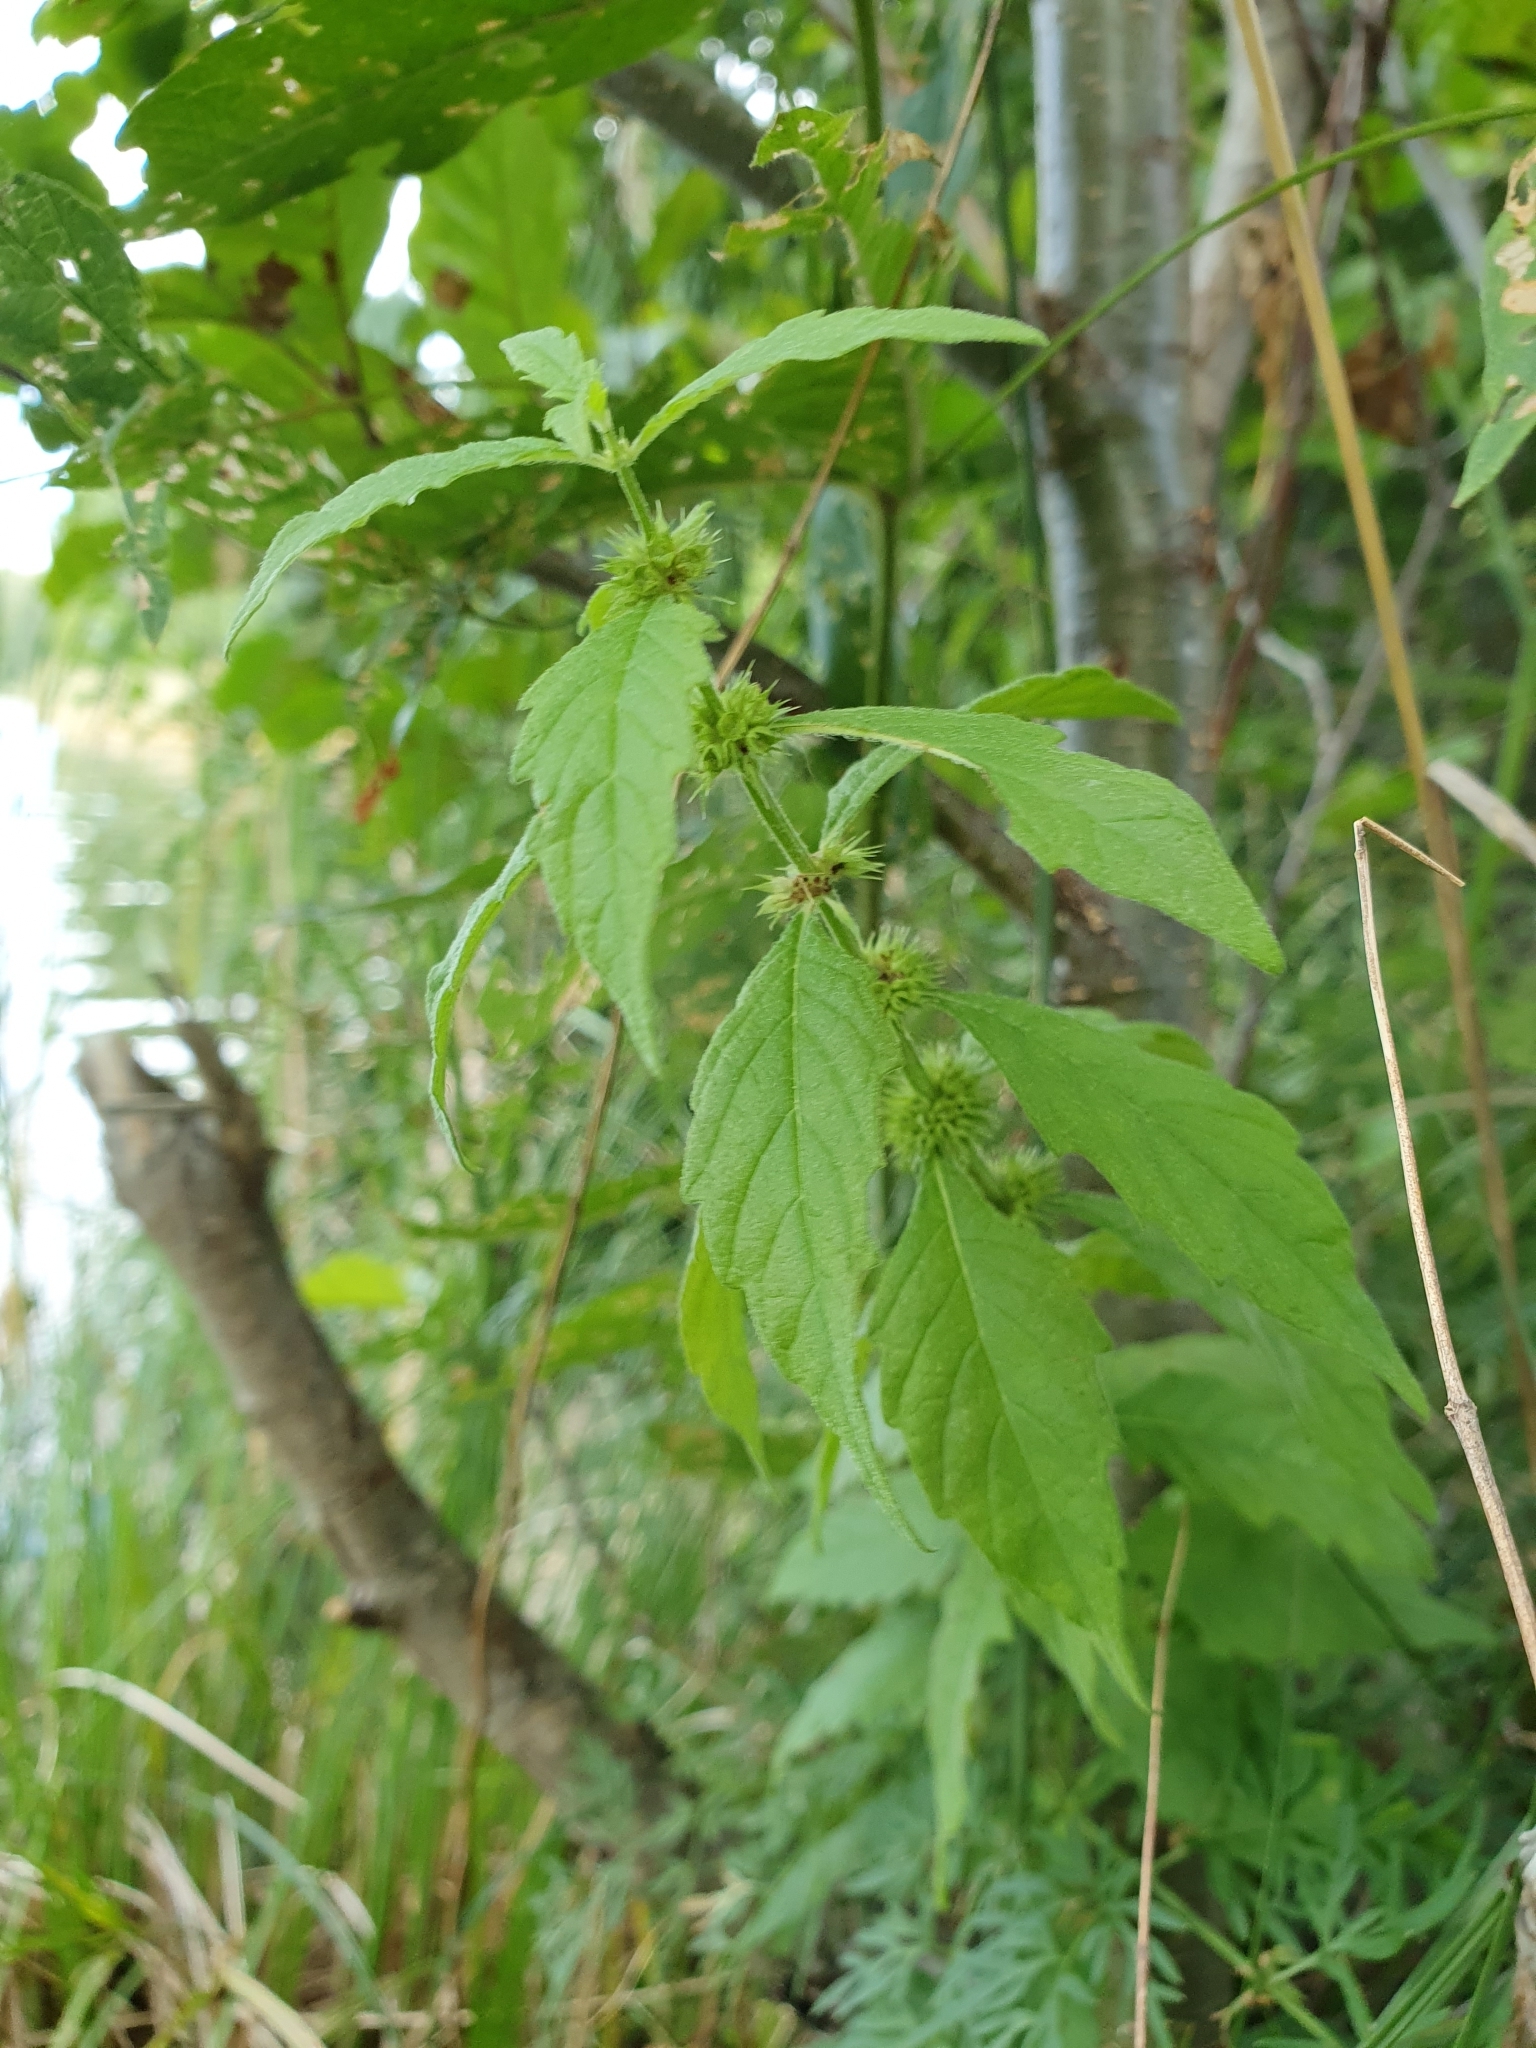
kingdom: Plantae
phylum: Tracheophyta
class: Magnoliopsida
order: Lamiales
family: Lamiaceae
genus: Lycopus
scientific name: Lycopus europaeus
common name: European bugleweed
